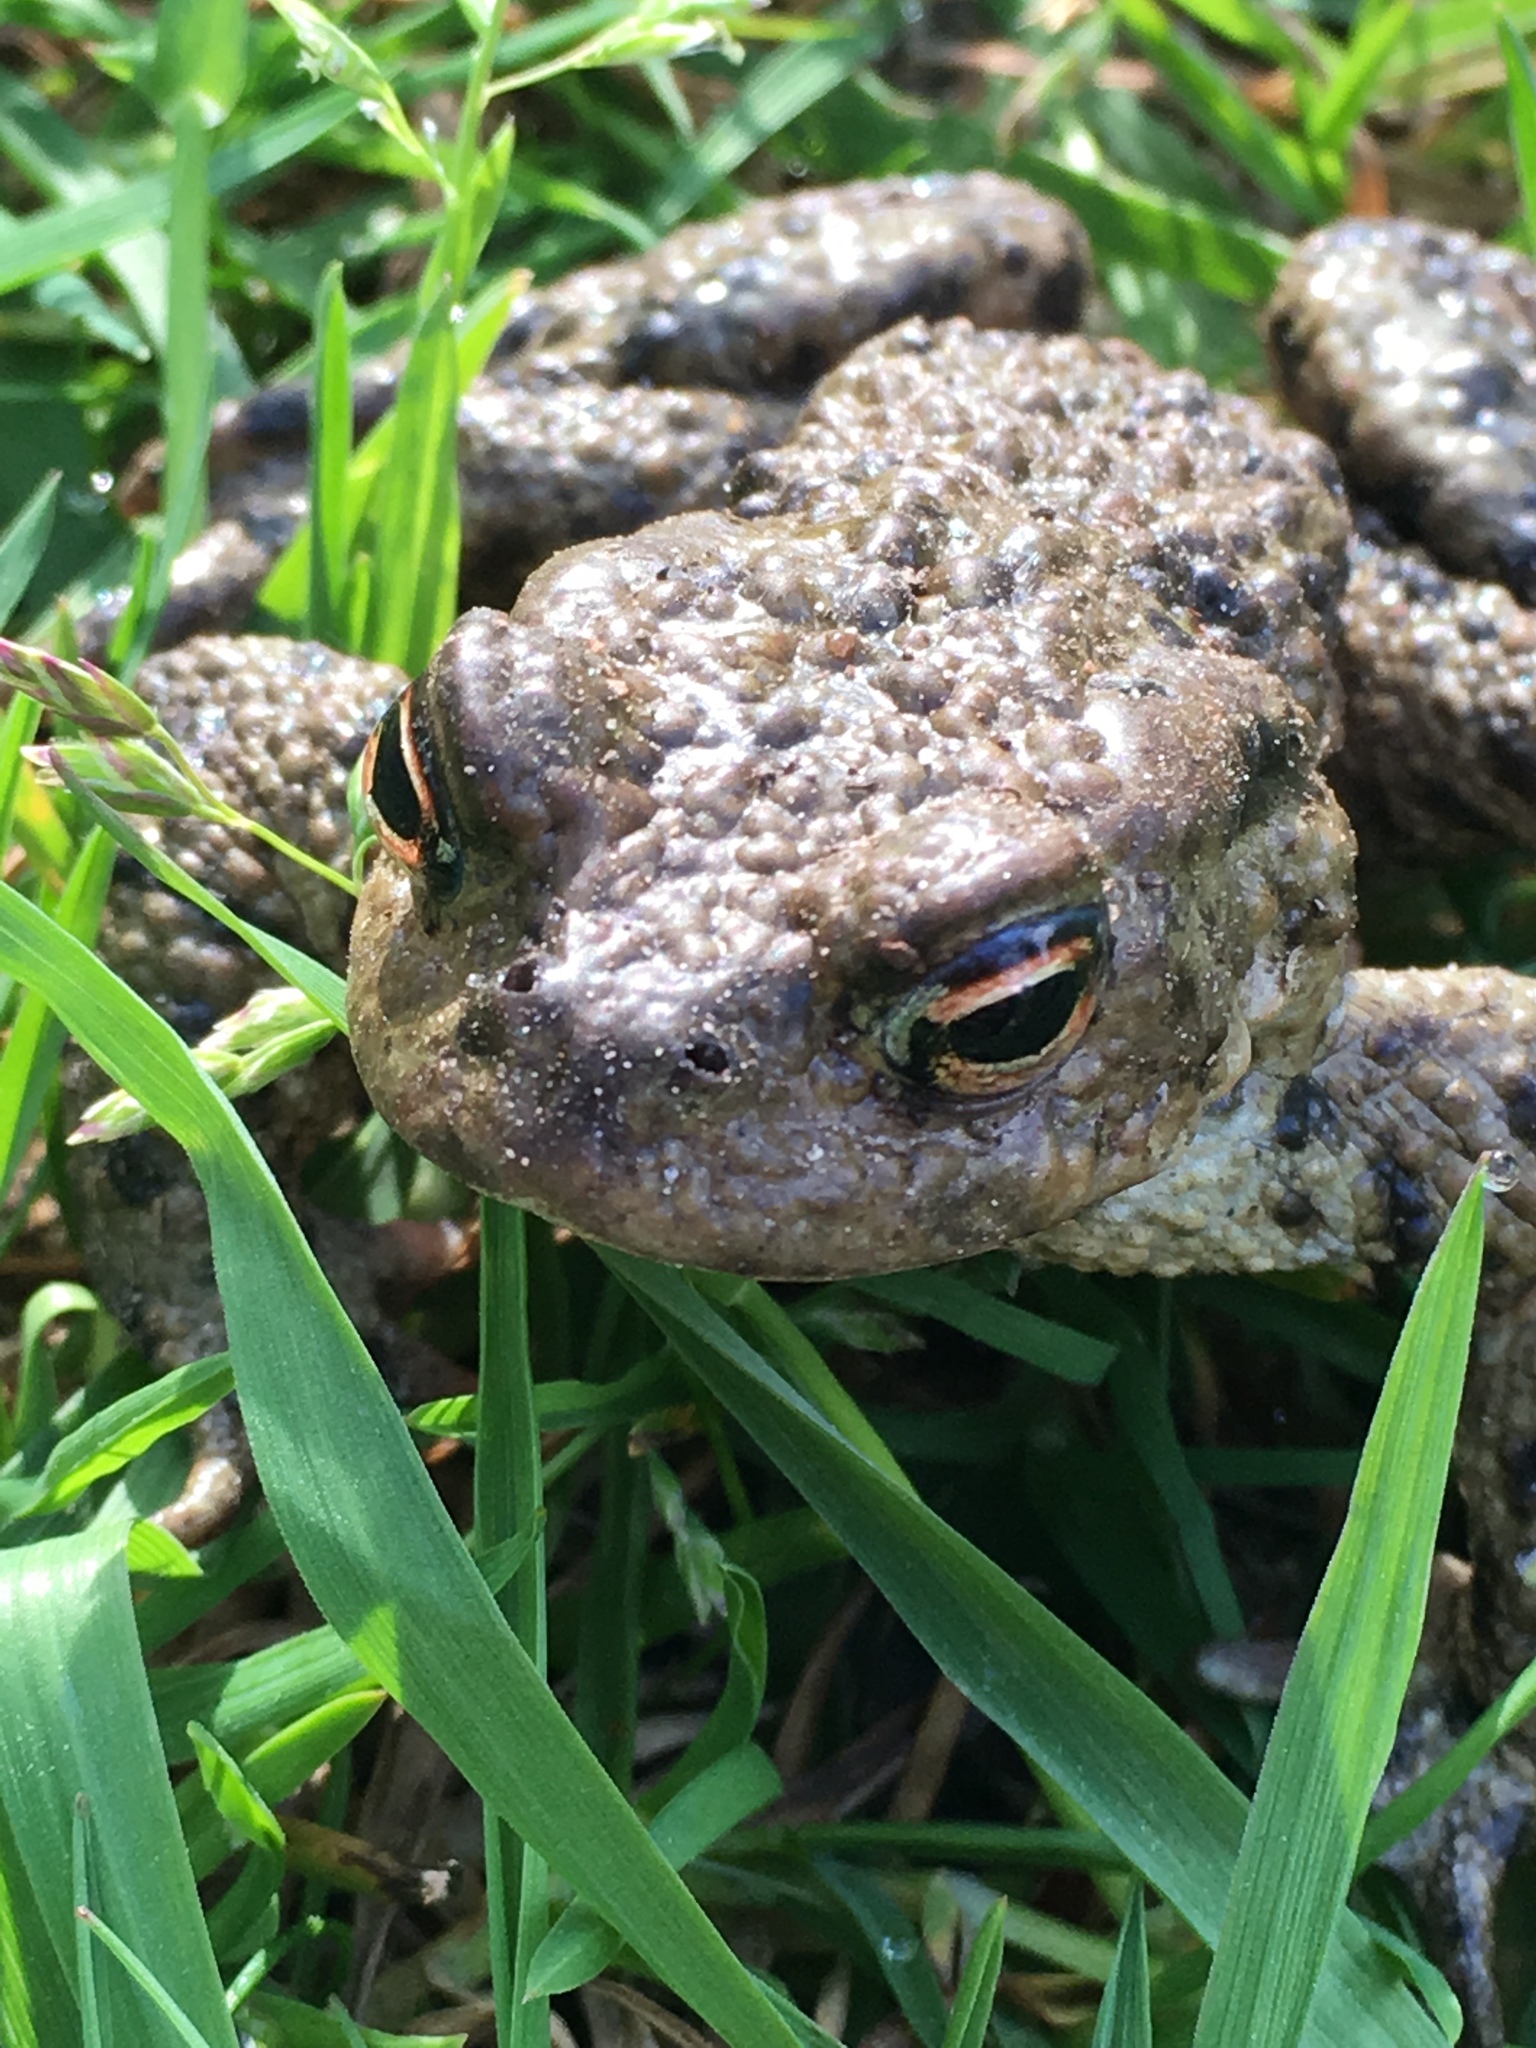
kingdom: Animalia
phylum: Chordata
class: Amphibia
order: Anura
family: Bufonidae
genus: Bufo
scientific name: Bufo bufo
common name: Common toad
